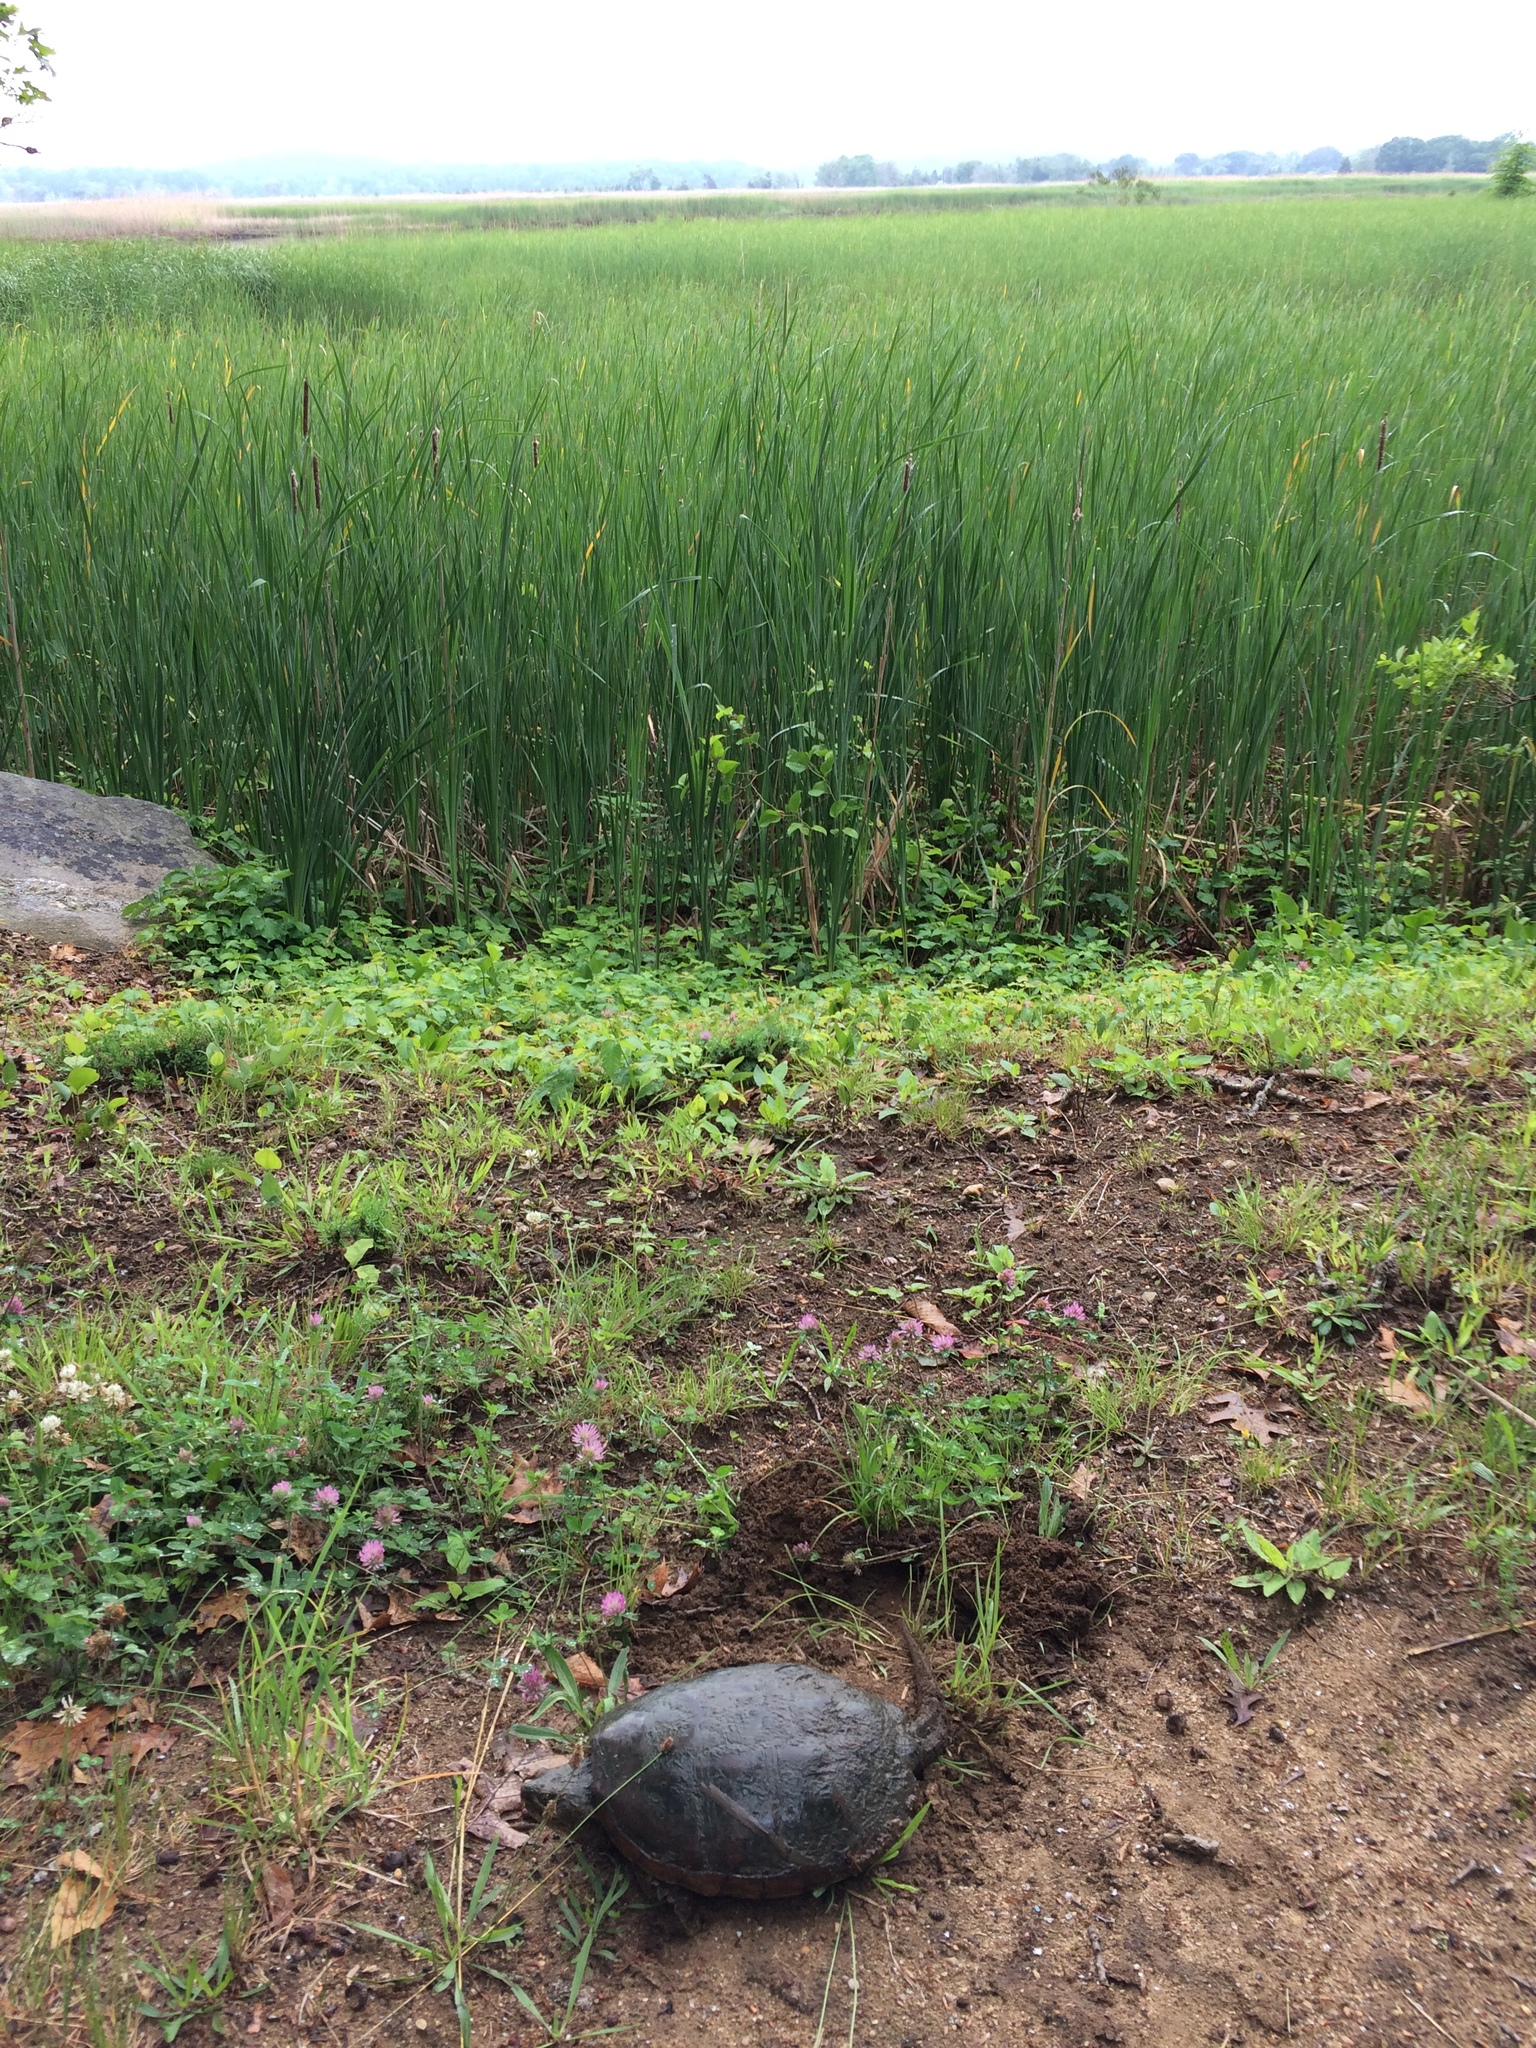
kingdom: Animalia
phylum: Chordata
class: Testudines
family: Chelydridae
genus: Chelydra
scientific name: Chelydra serpentina
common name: Common snapping turtle
